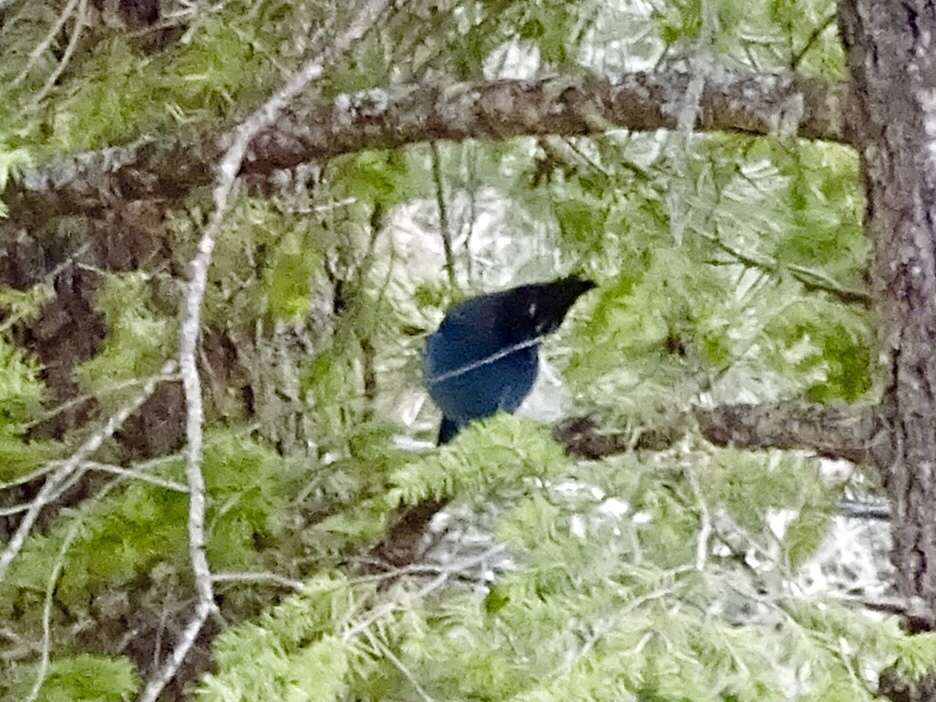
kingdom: Animalia
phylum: Chordata
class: Aves
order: Passeriformes
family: Corvidae
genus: Cyanocitta
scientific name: Cyanocitta stelleri
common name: Steller's jay
